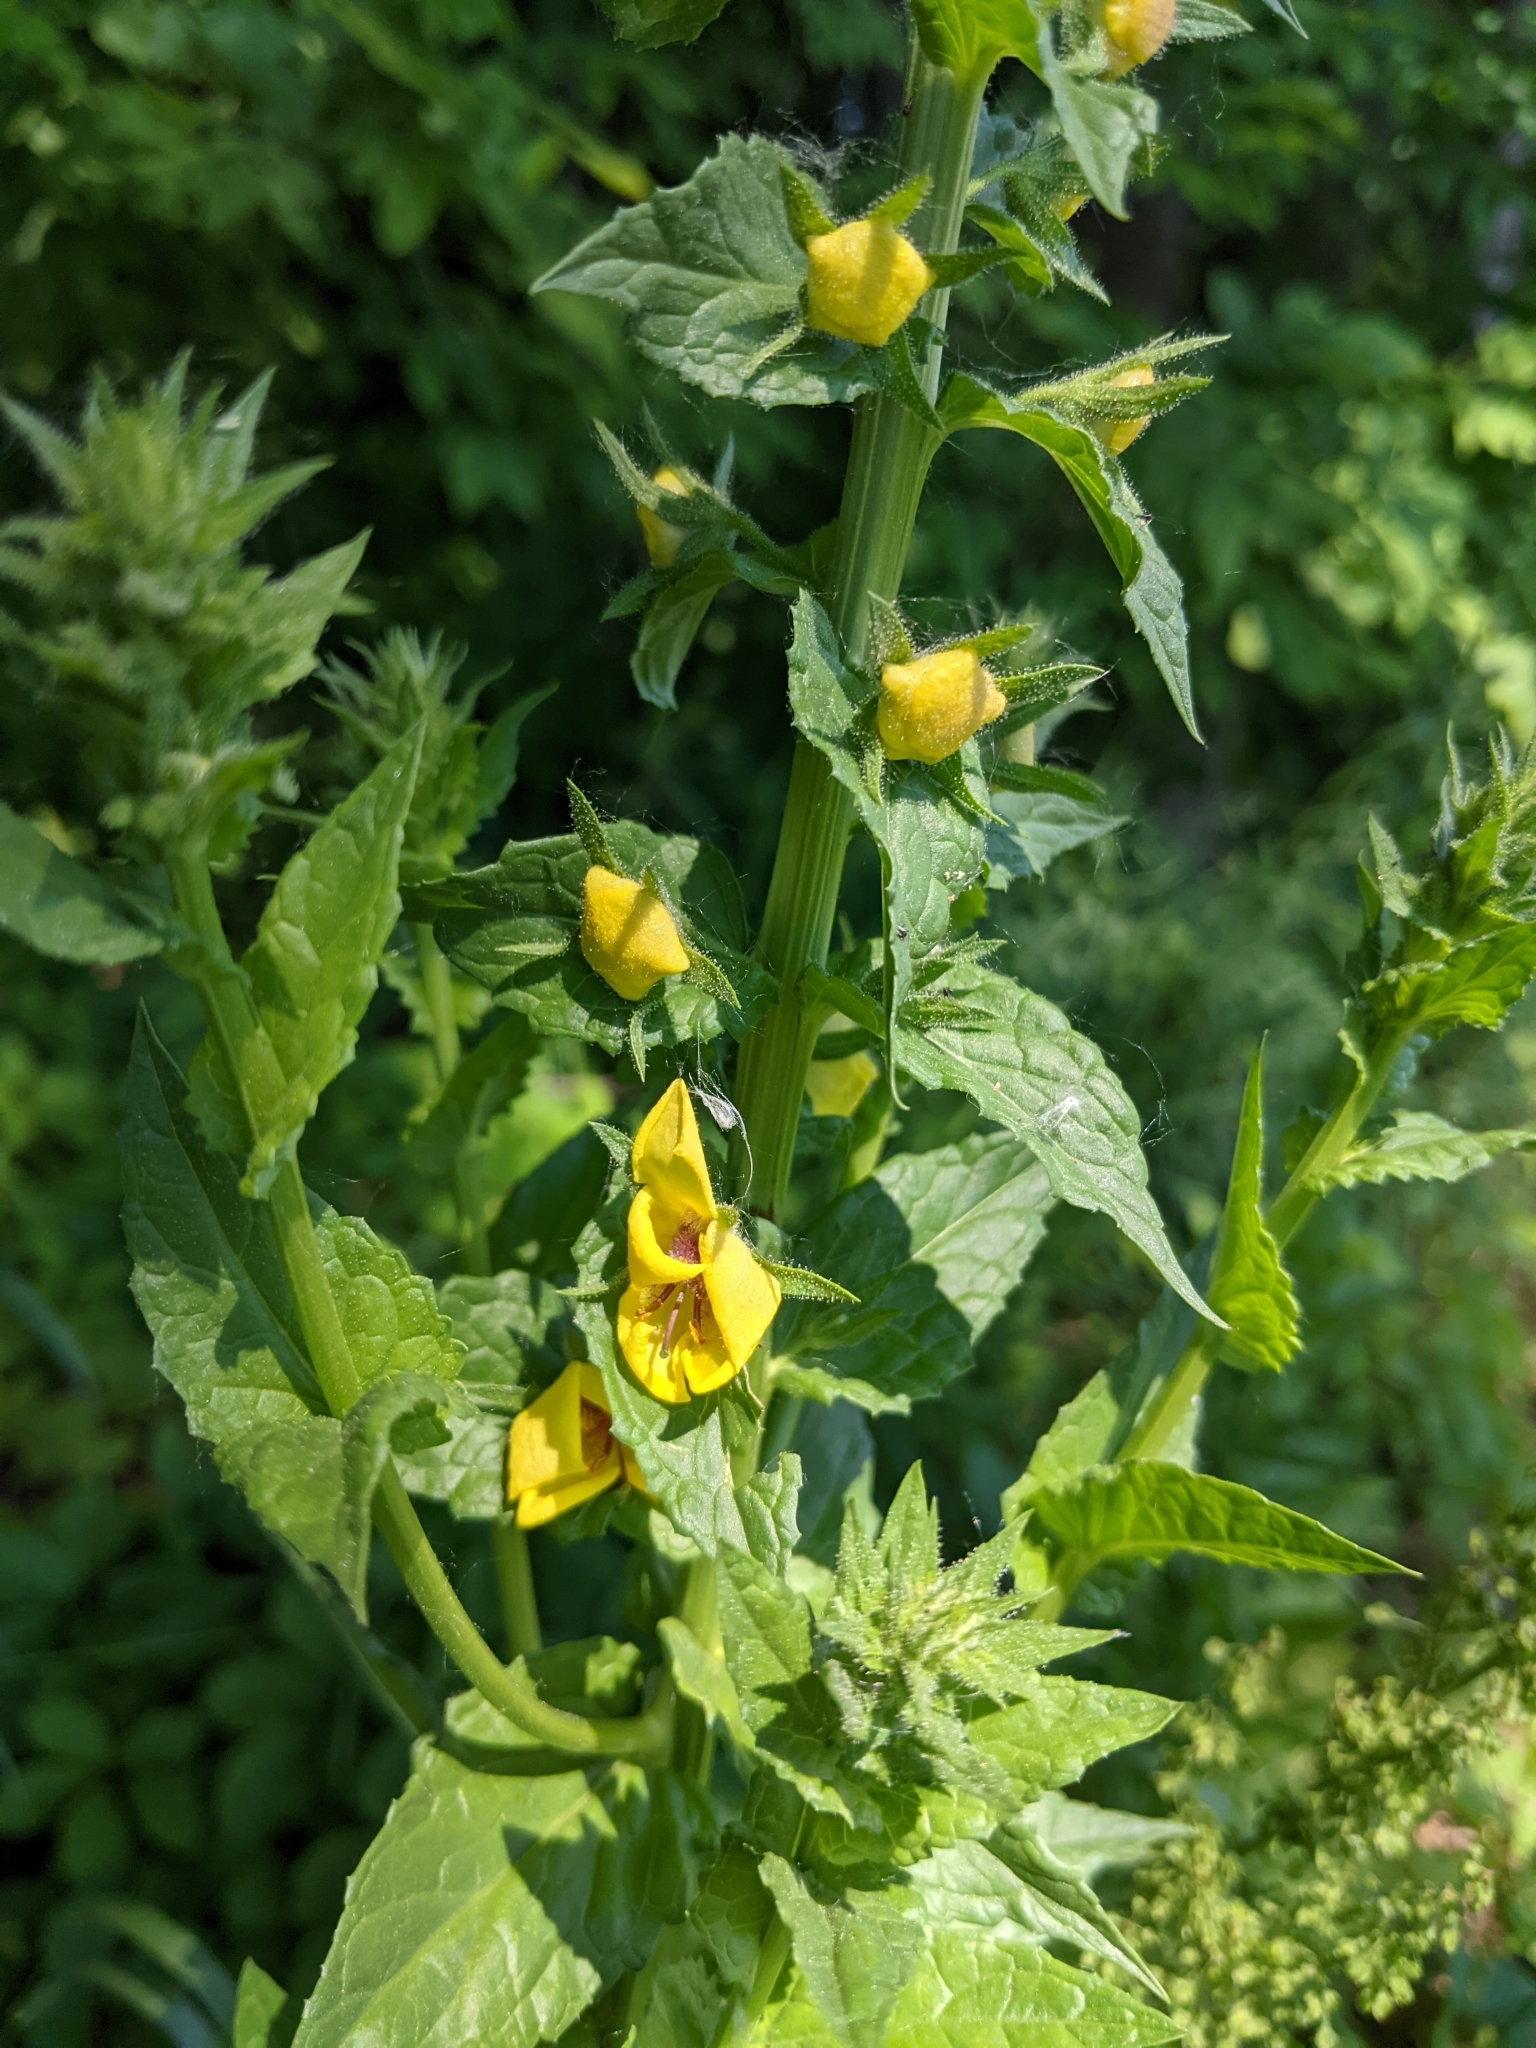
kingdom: Plantae
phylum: Tracheophyta
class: Magnoliopsida
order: Lamiales
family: Scrophulariaceae
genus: Verbascum
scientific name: Verbascum blattaria
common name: Moth mullein
